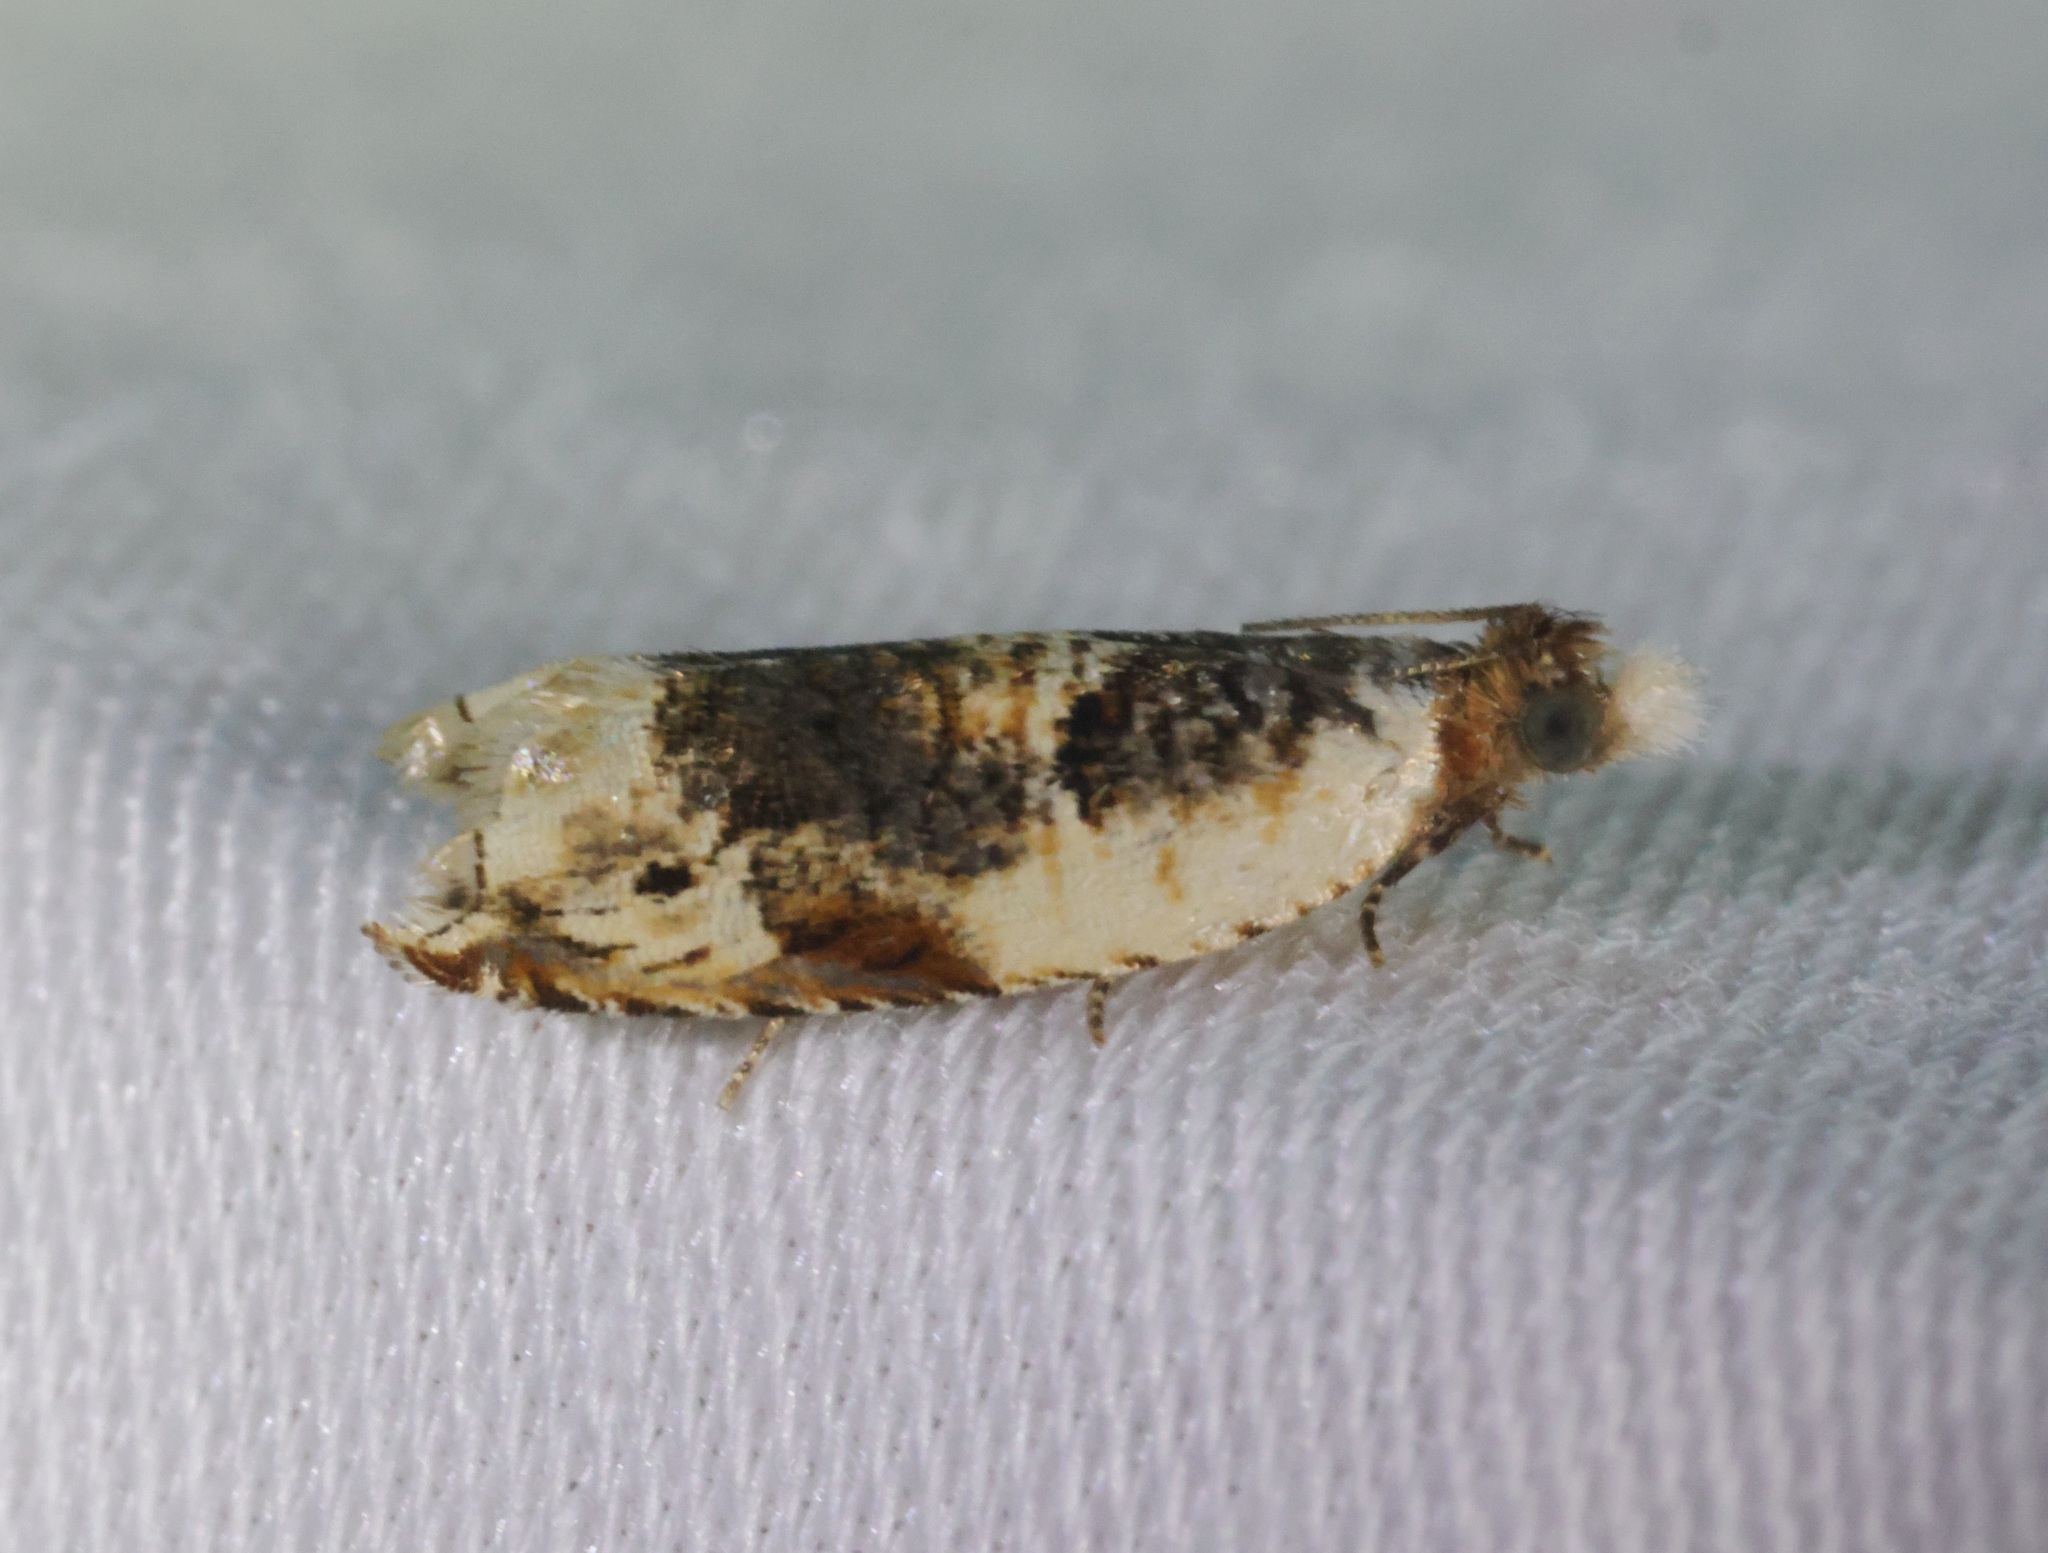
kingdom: Animalia
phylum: Arthropoda
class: Insecta
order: Lepidoptera
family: Tortricidae
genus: Acroclita
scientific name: Acroclita catharotorna
